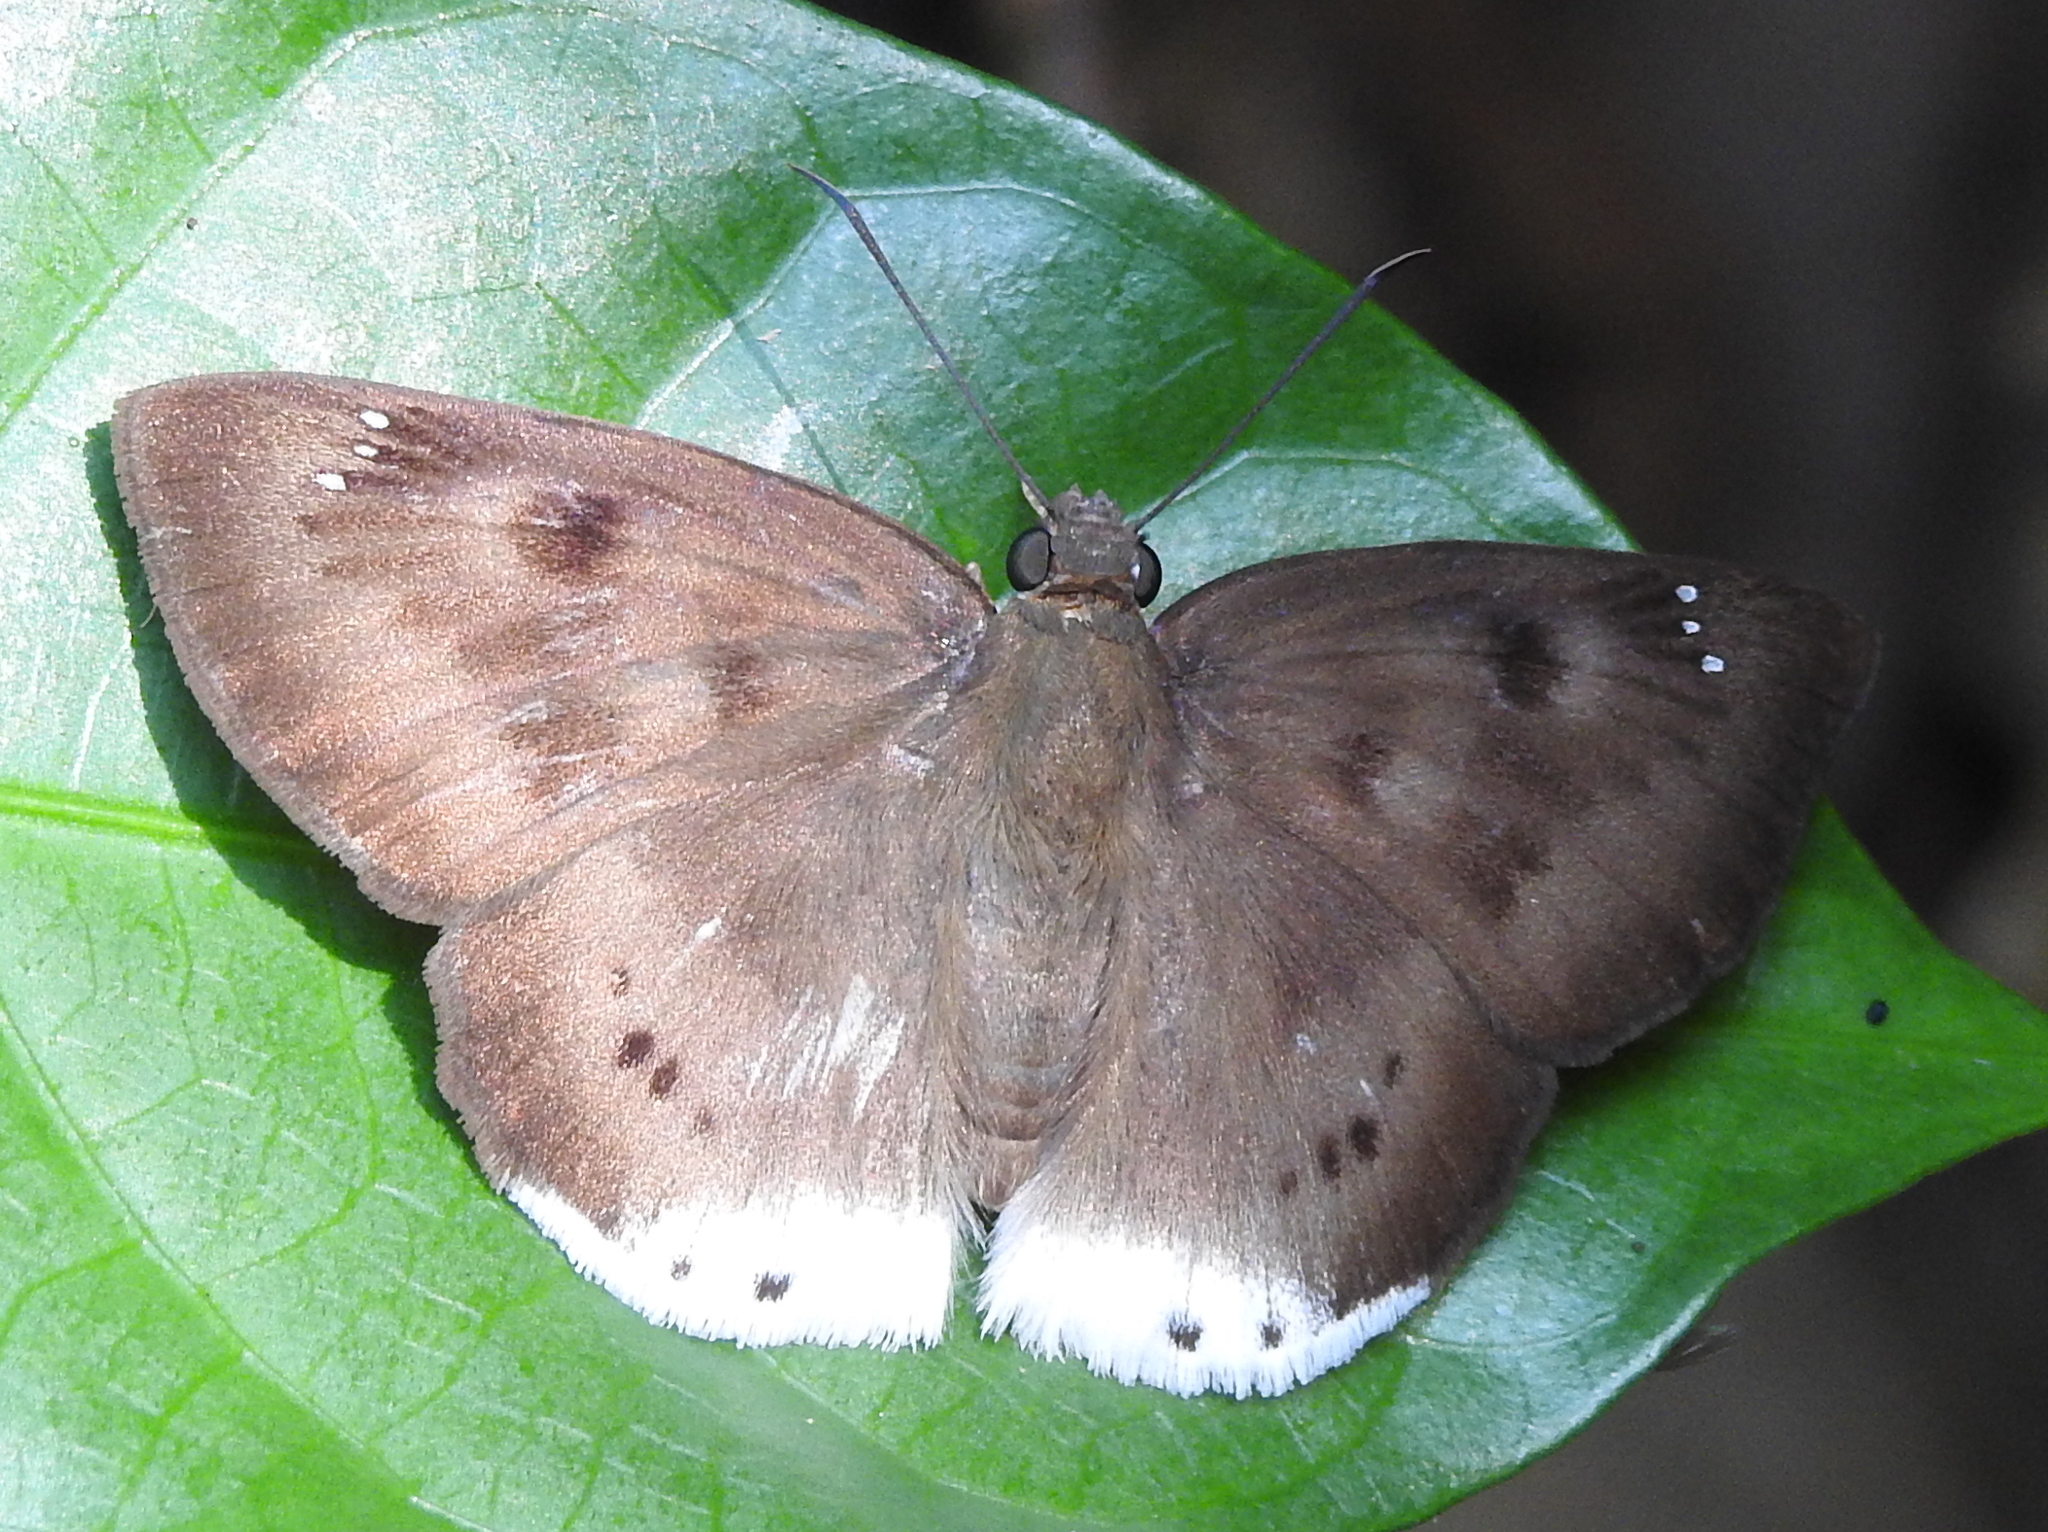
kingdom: Animalia
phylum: Arthropoda
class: Insecta
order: Lepidoptera
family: Hesperiidae
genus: Tagiades
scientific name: Tagiades gana
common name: Suffused snow flat
